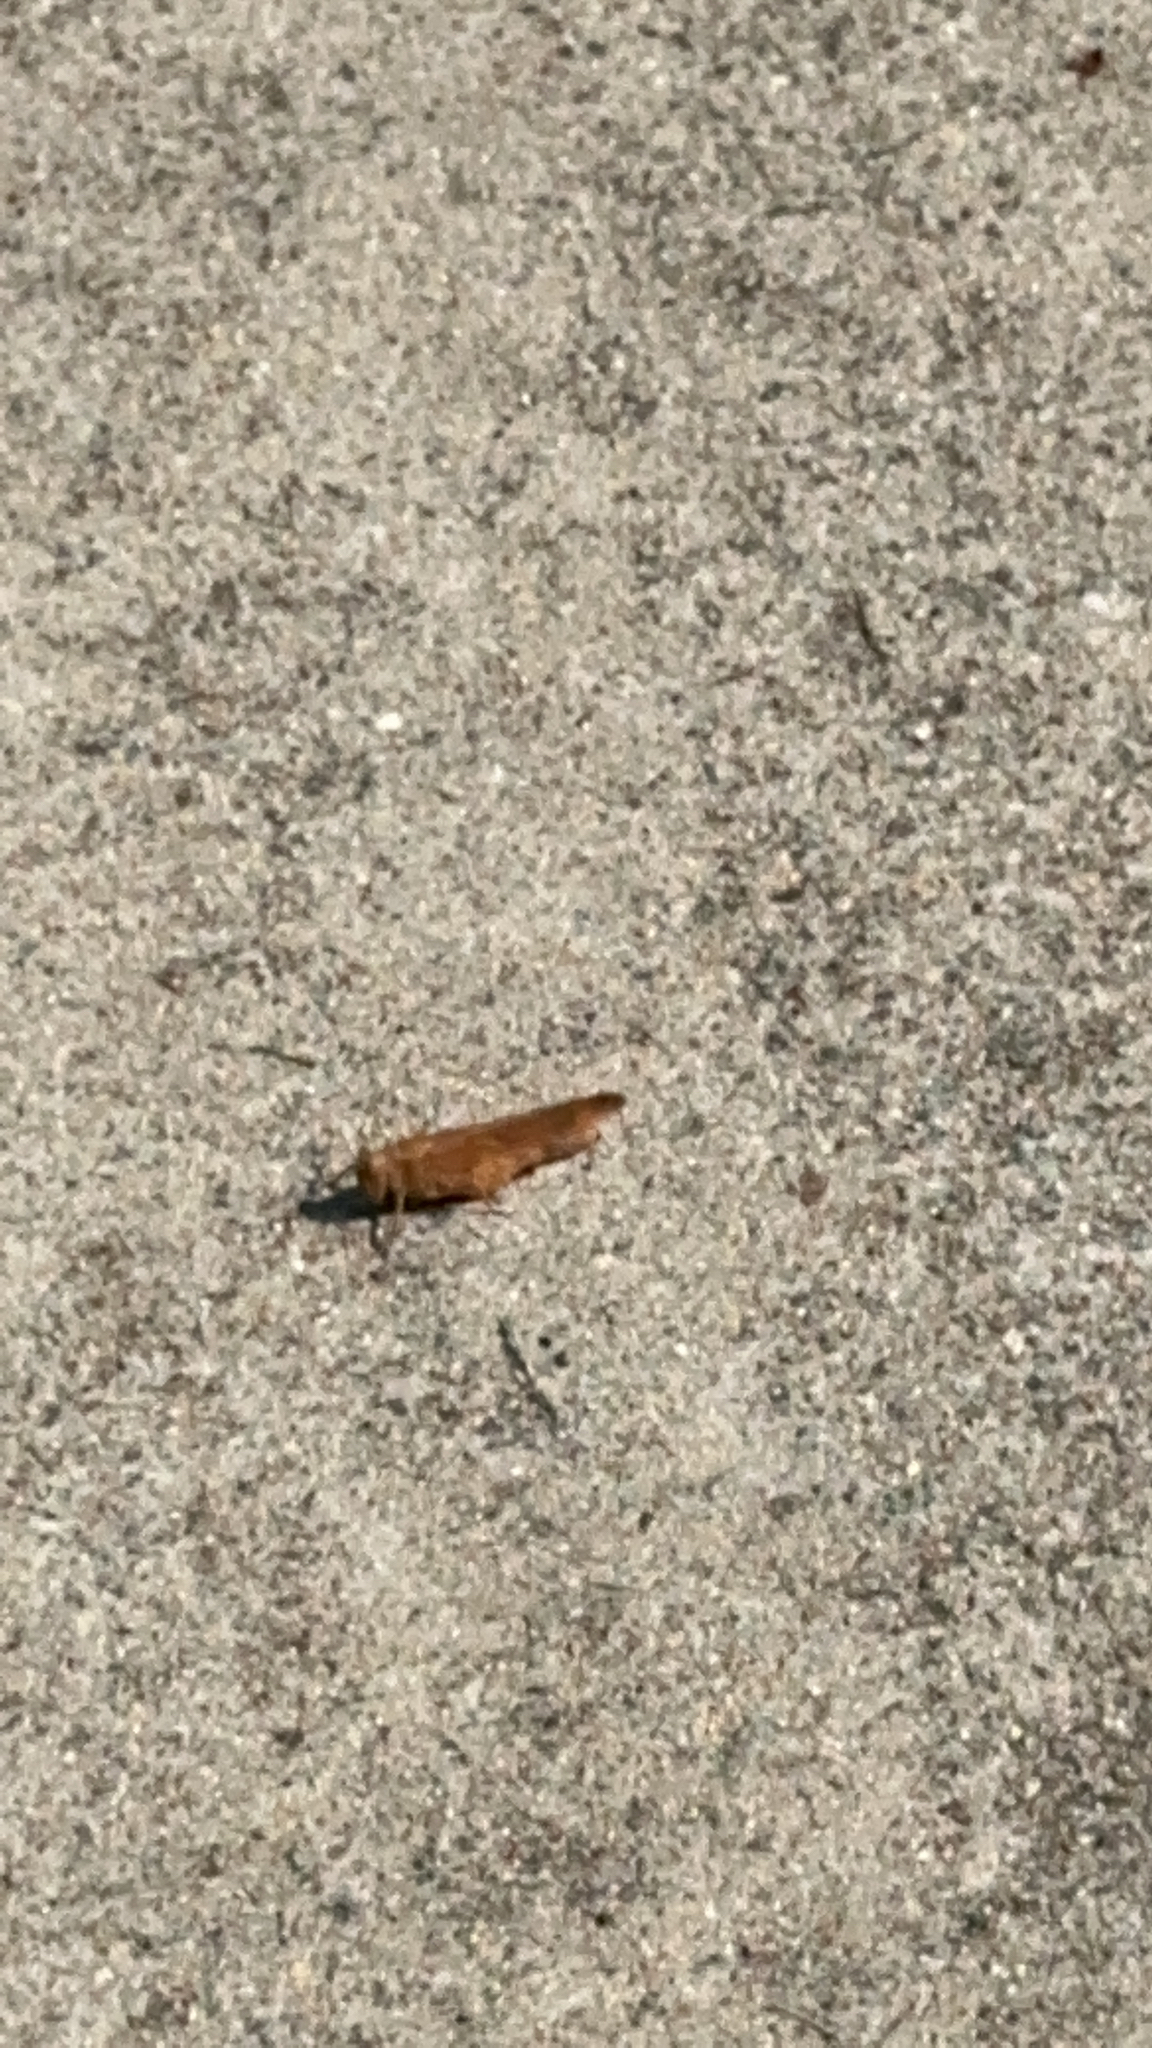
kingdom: Animalia
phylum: Arthropoda
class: Insecta
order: Orthoptera
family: Acrididae
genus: Dissosteira
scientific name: Dissosteira carolina
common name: Carolina grasshopper
